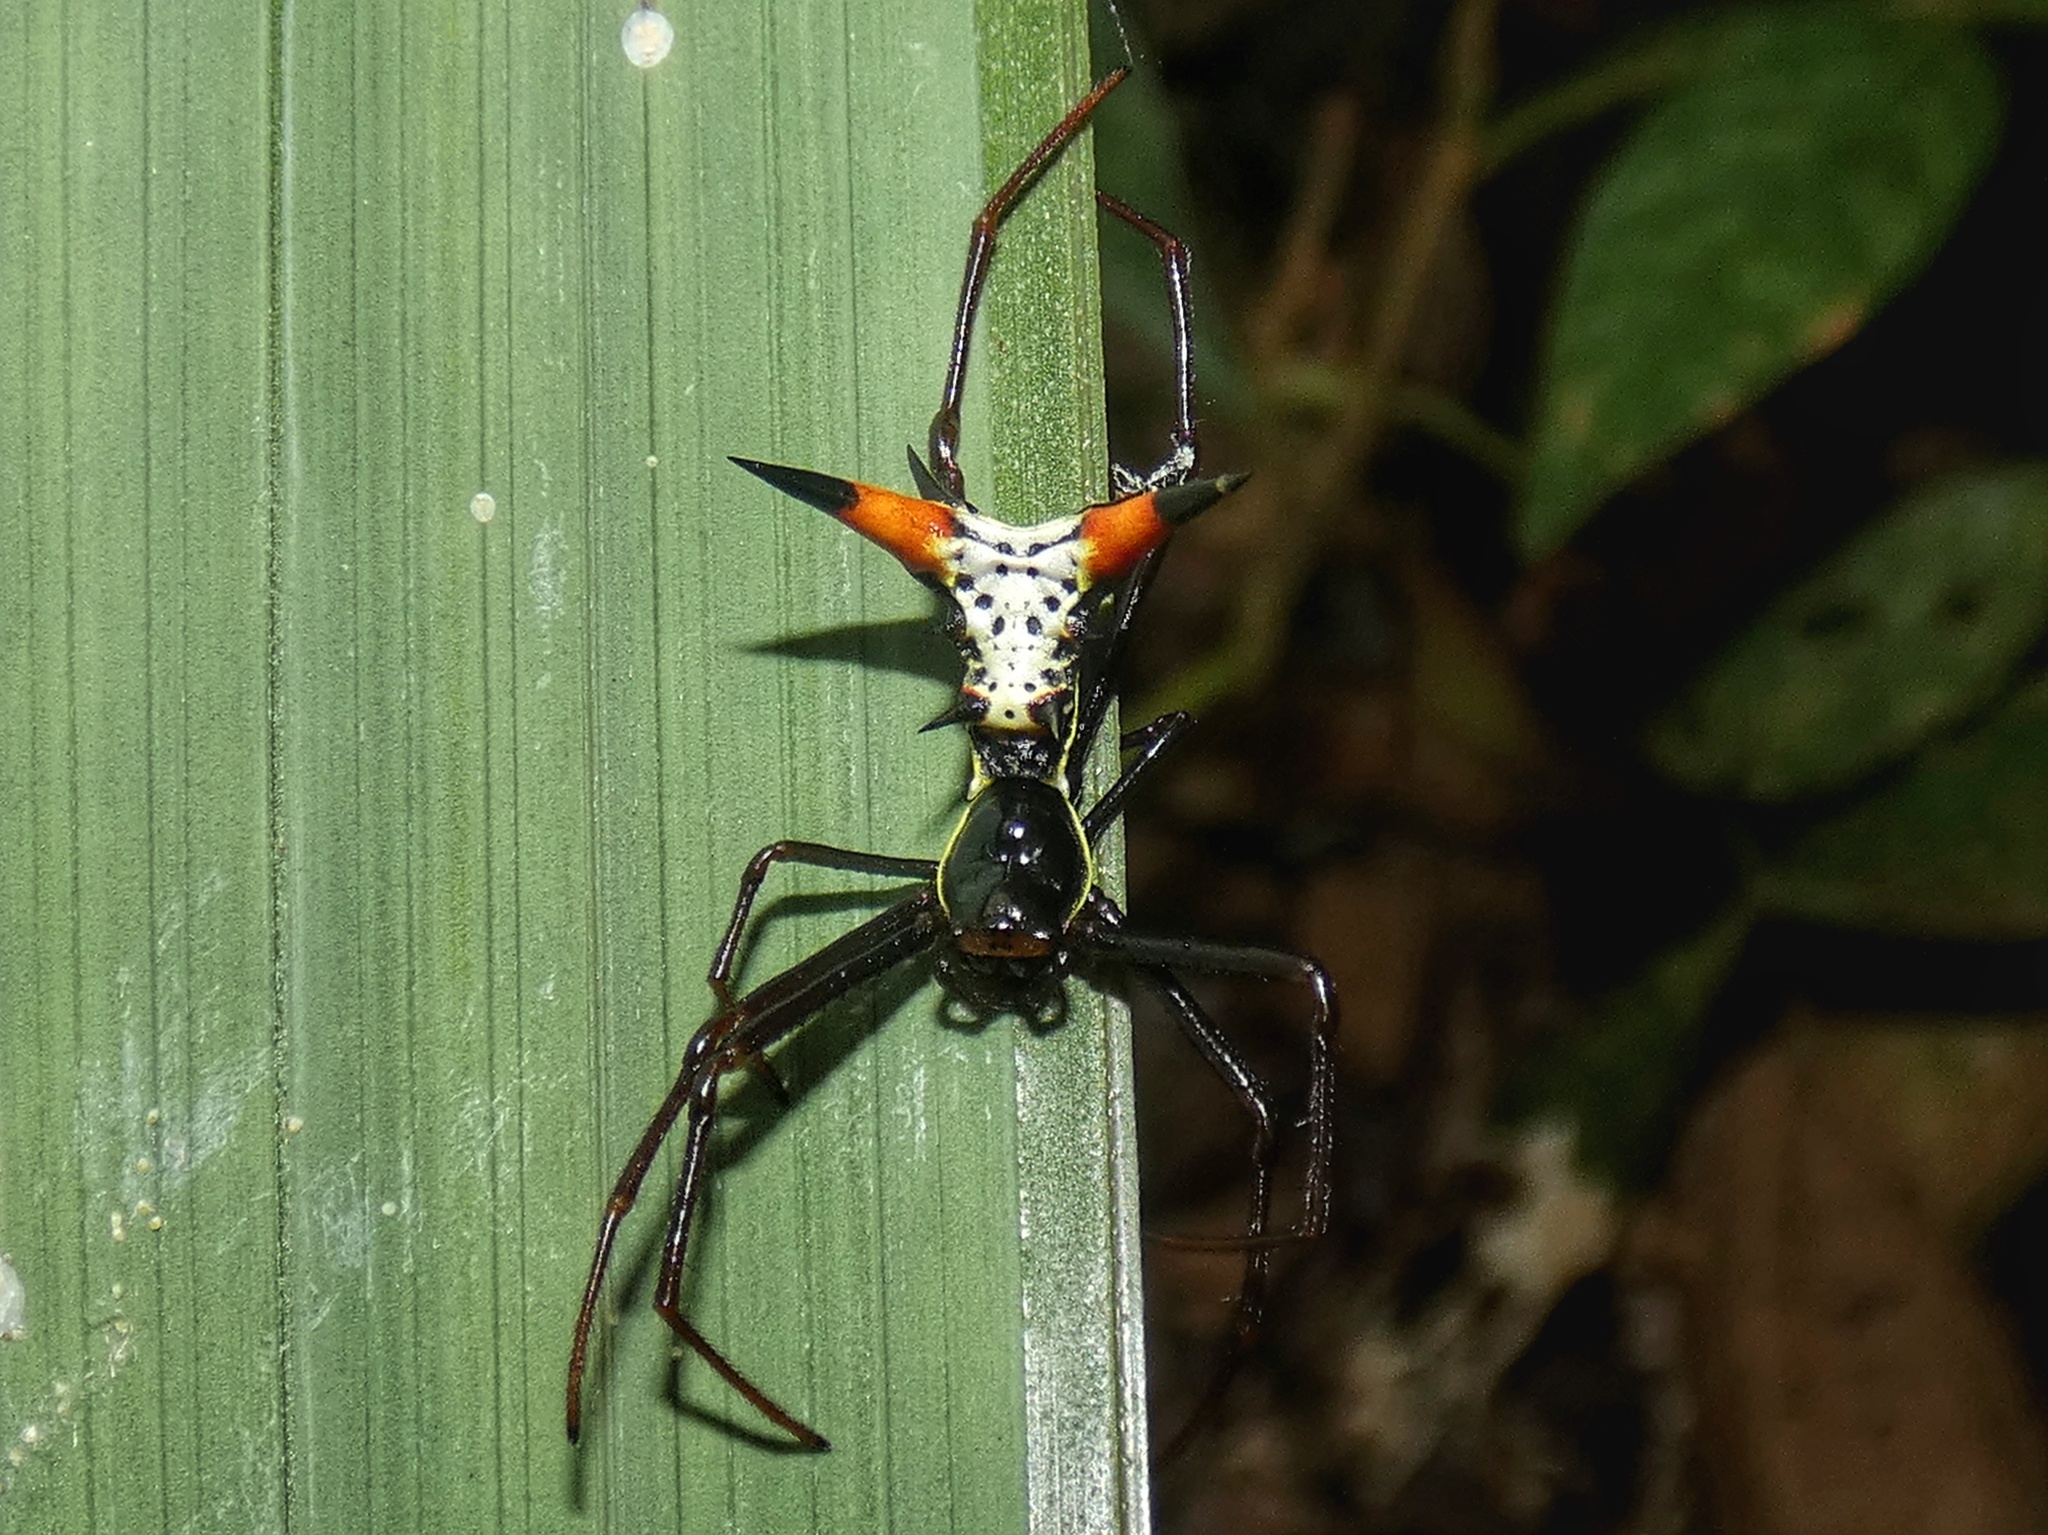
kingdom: Animalia
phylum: Arthropoda
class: Arachnida
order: Araneae
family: Araneidae
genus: Micrathena
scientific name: Micrathena schreibersi
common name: Orb weavers
